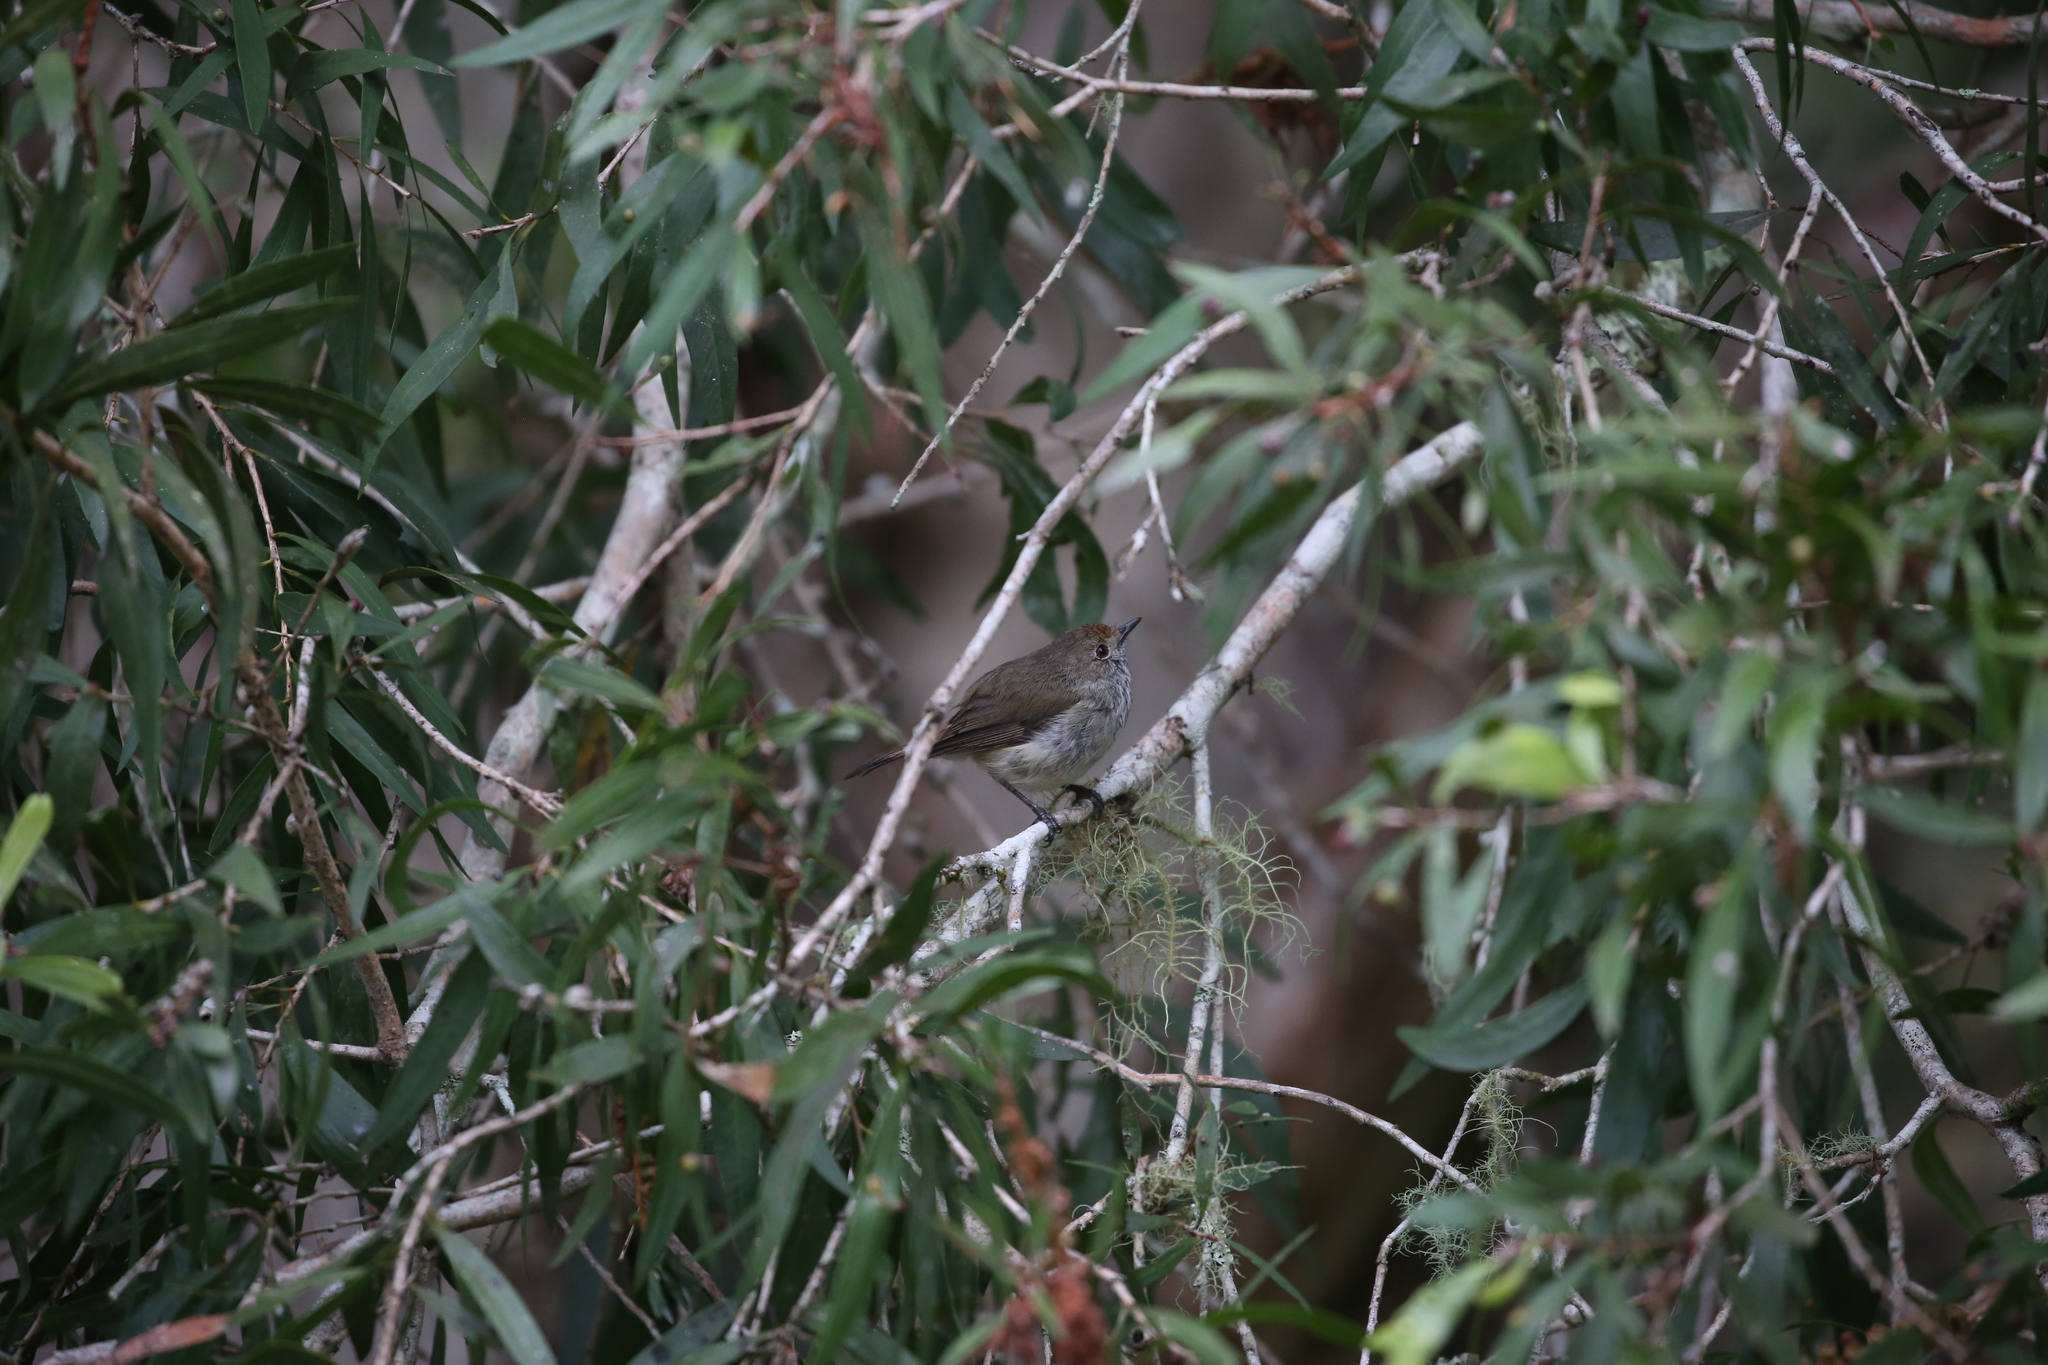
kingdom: Animalia
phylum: Chordata
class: Aves
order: Passeriformes
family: Acanthizidae
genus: Acanthiza
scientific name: Acanthiza pusilla
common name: Brown thornbill
